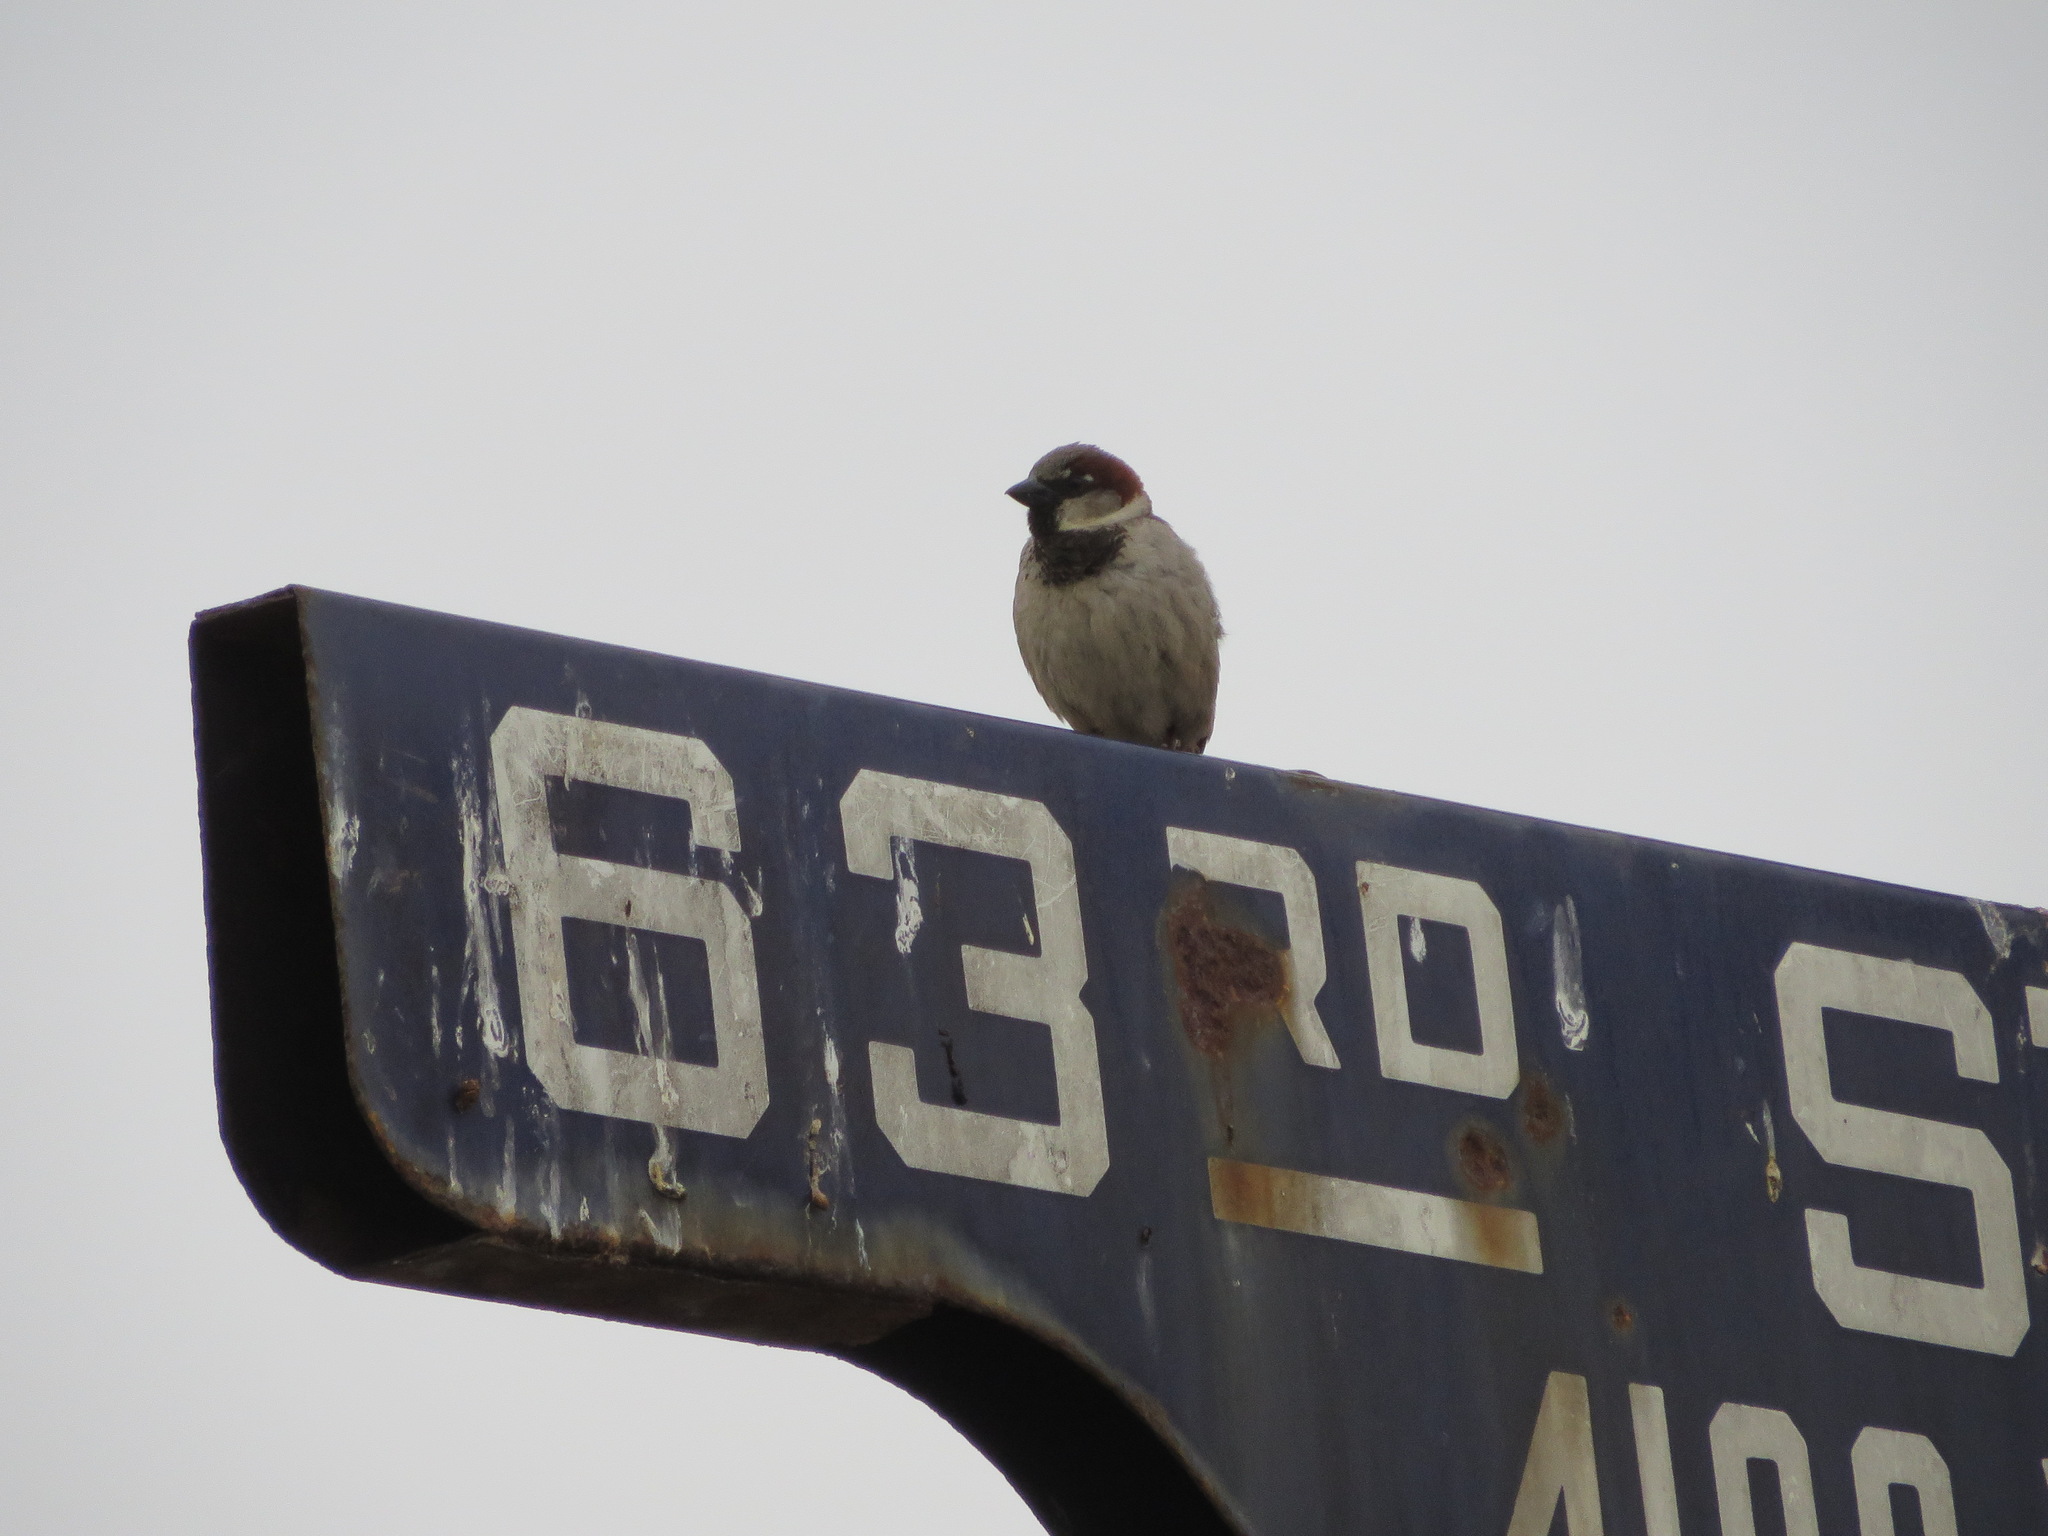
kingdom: Animalia
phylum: Chordata
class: Aves
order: Passeriformes
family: Passeridae
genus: Passer
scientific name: Passer domesticus
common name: House sparrow
